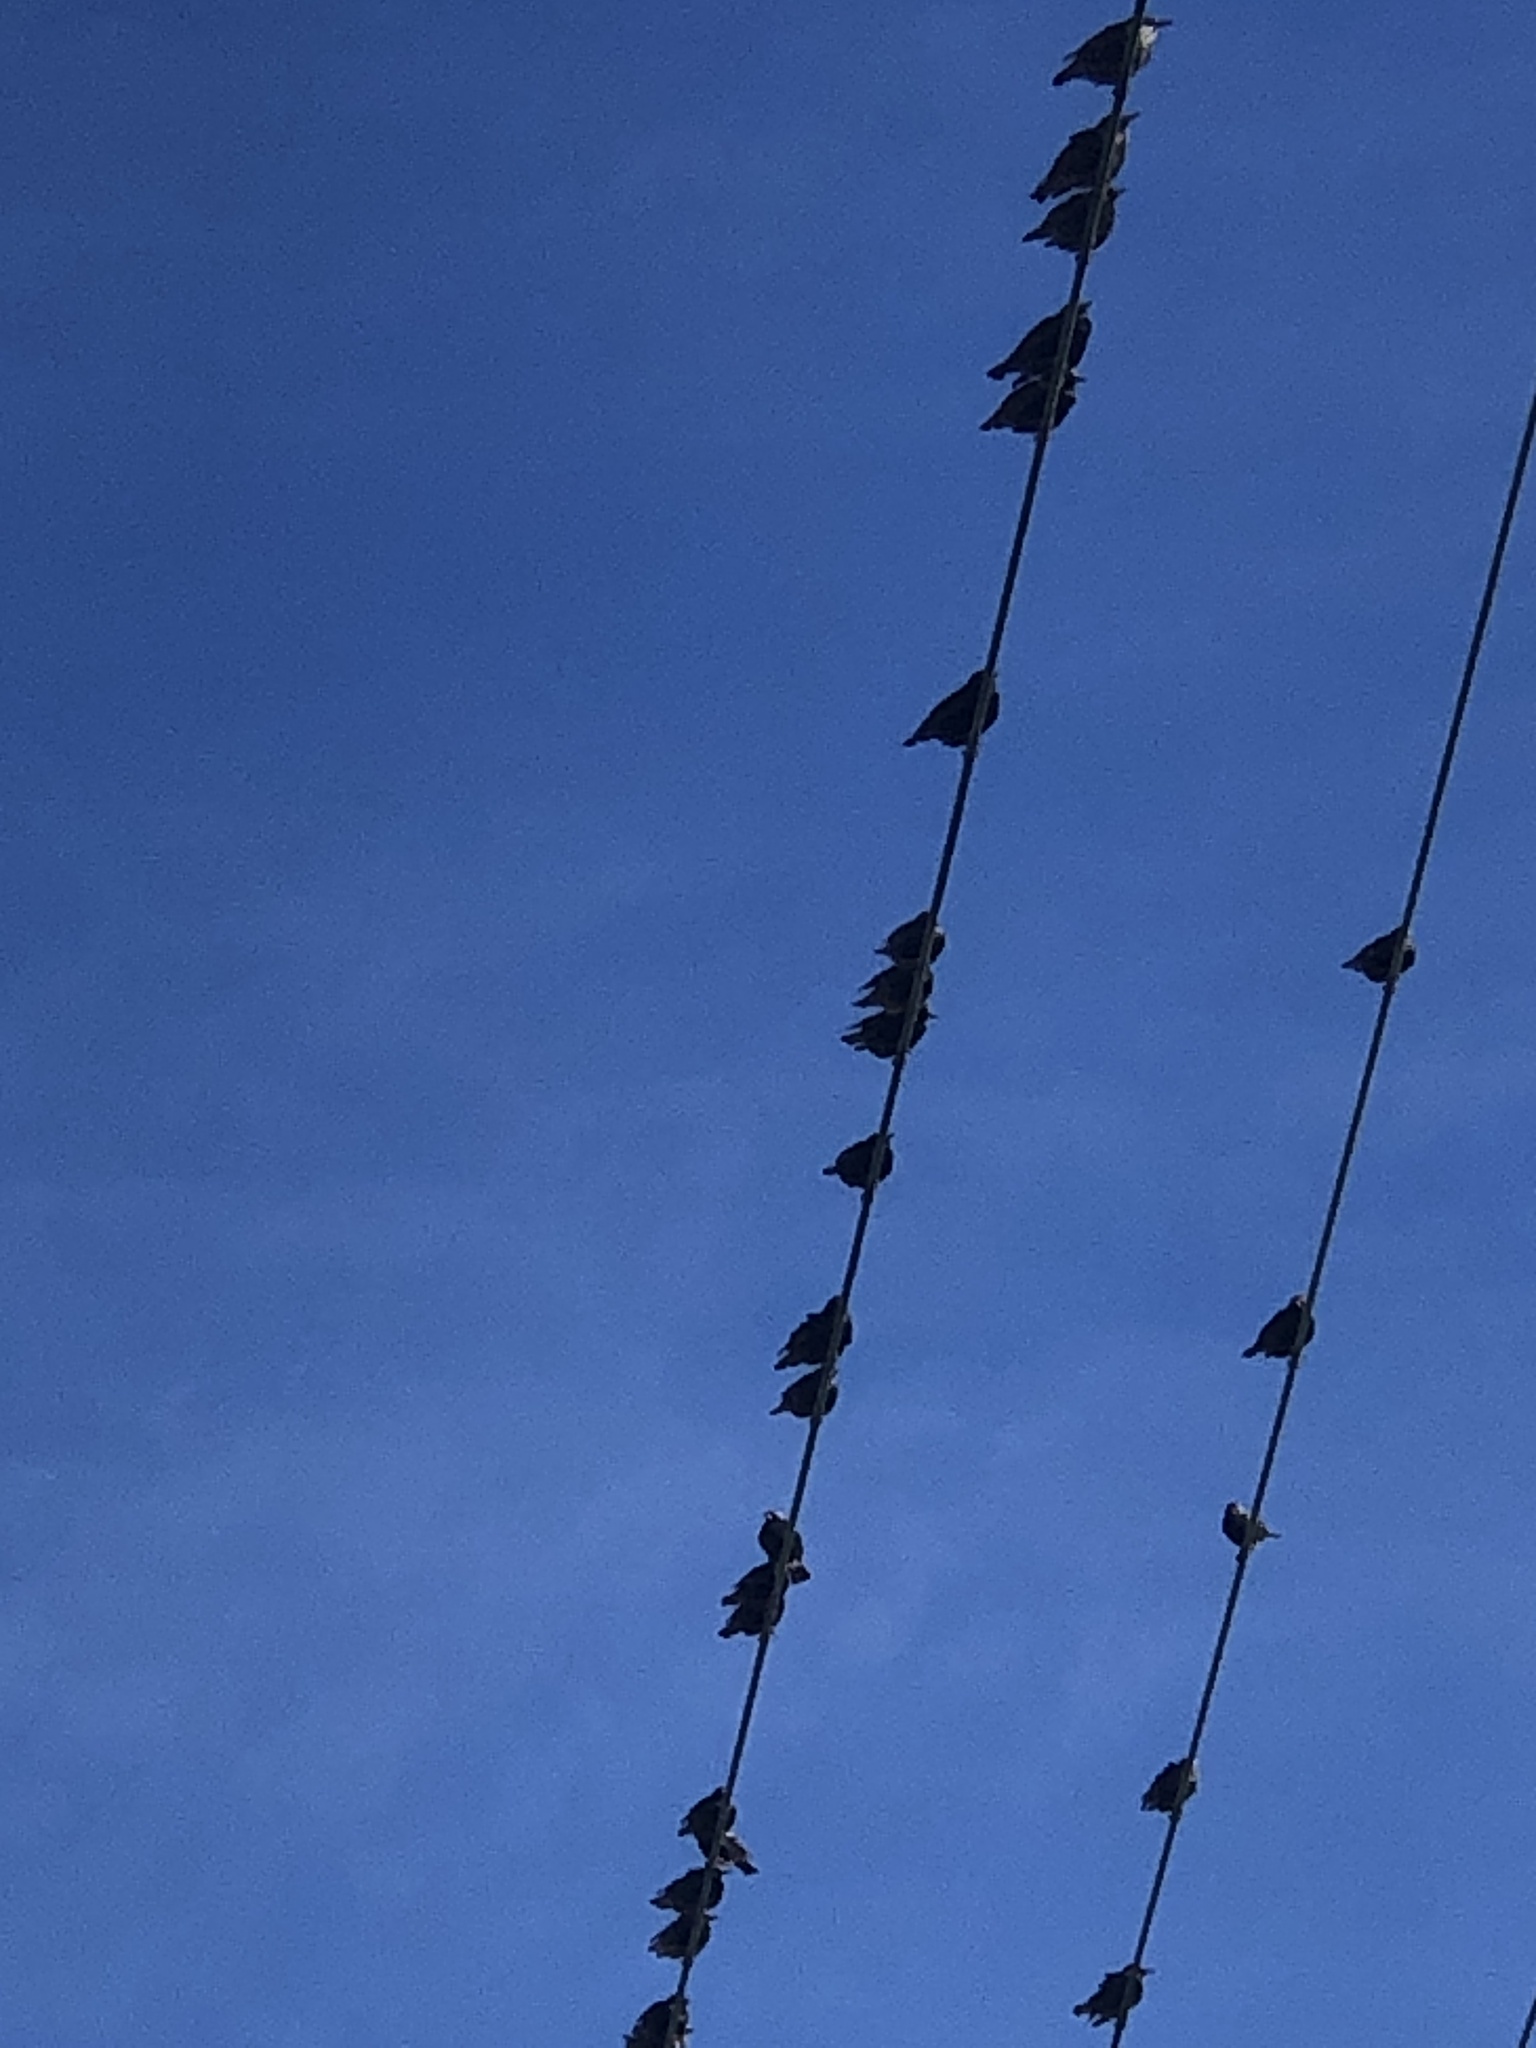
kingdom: Animalia
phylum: Chordata
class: Aves
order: Passeriformes
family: Sturnidae
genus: Sturnus
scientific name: Sturnus vulgaris
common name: Common starling
